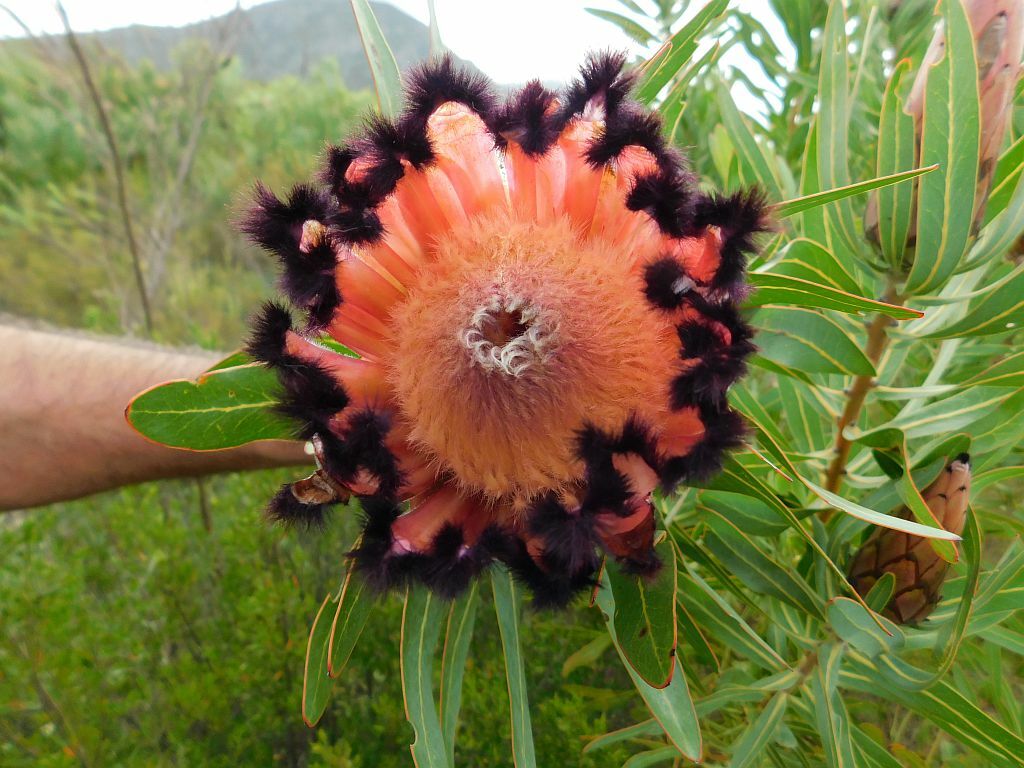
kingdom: Plantae
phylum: Tracheophyta
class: Magnoliopsida
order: Proteales
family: Proteaceae
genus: Protea
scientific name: Protea neriifolia
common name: Blue sugarbush
